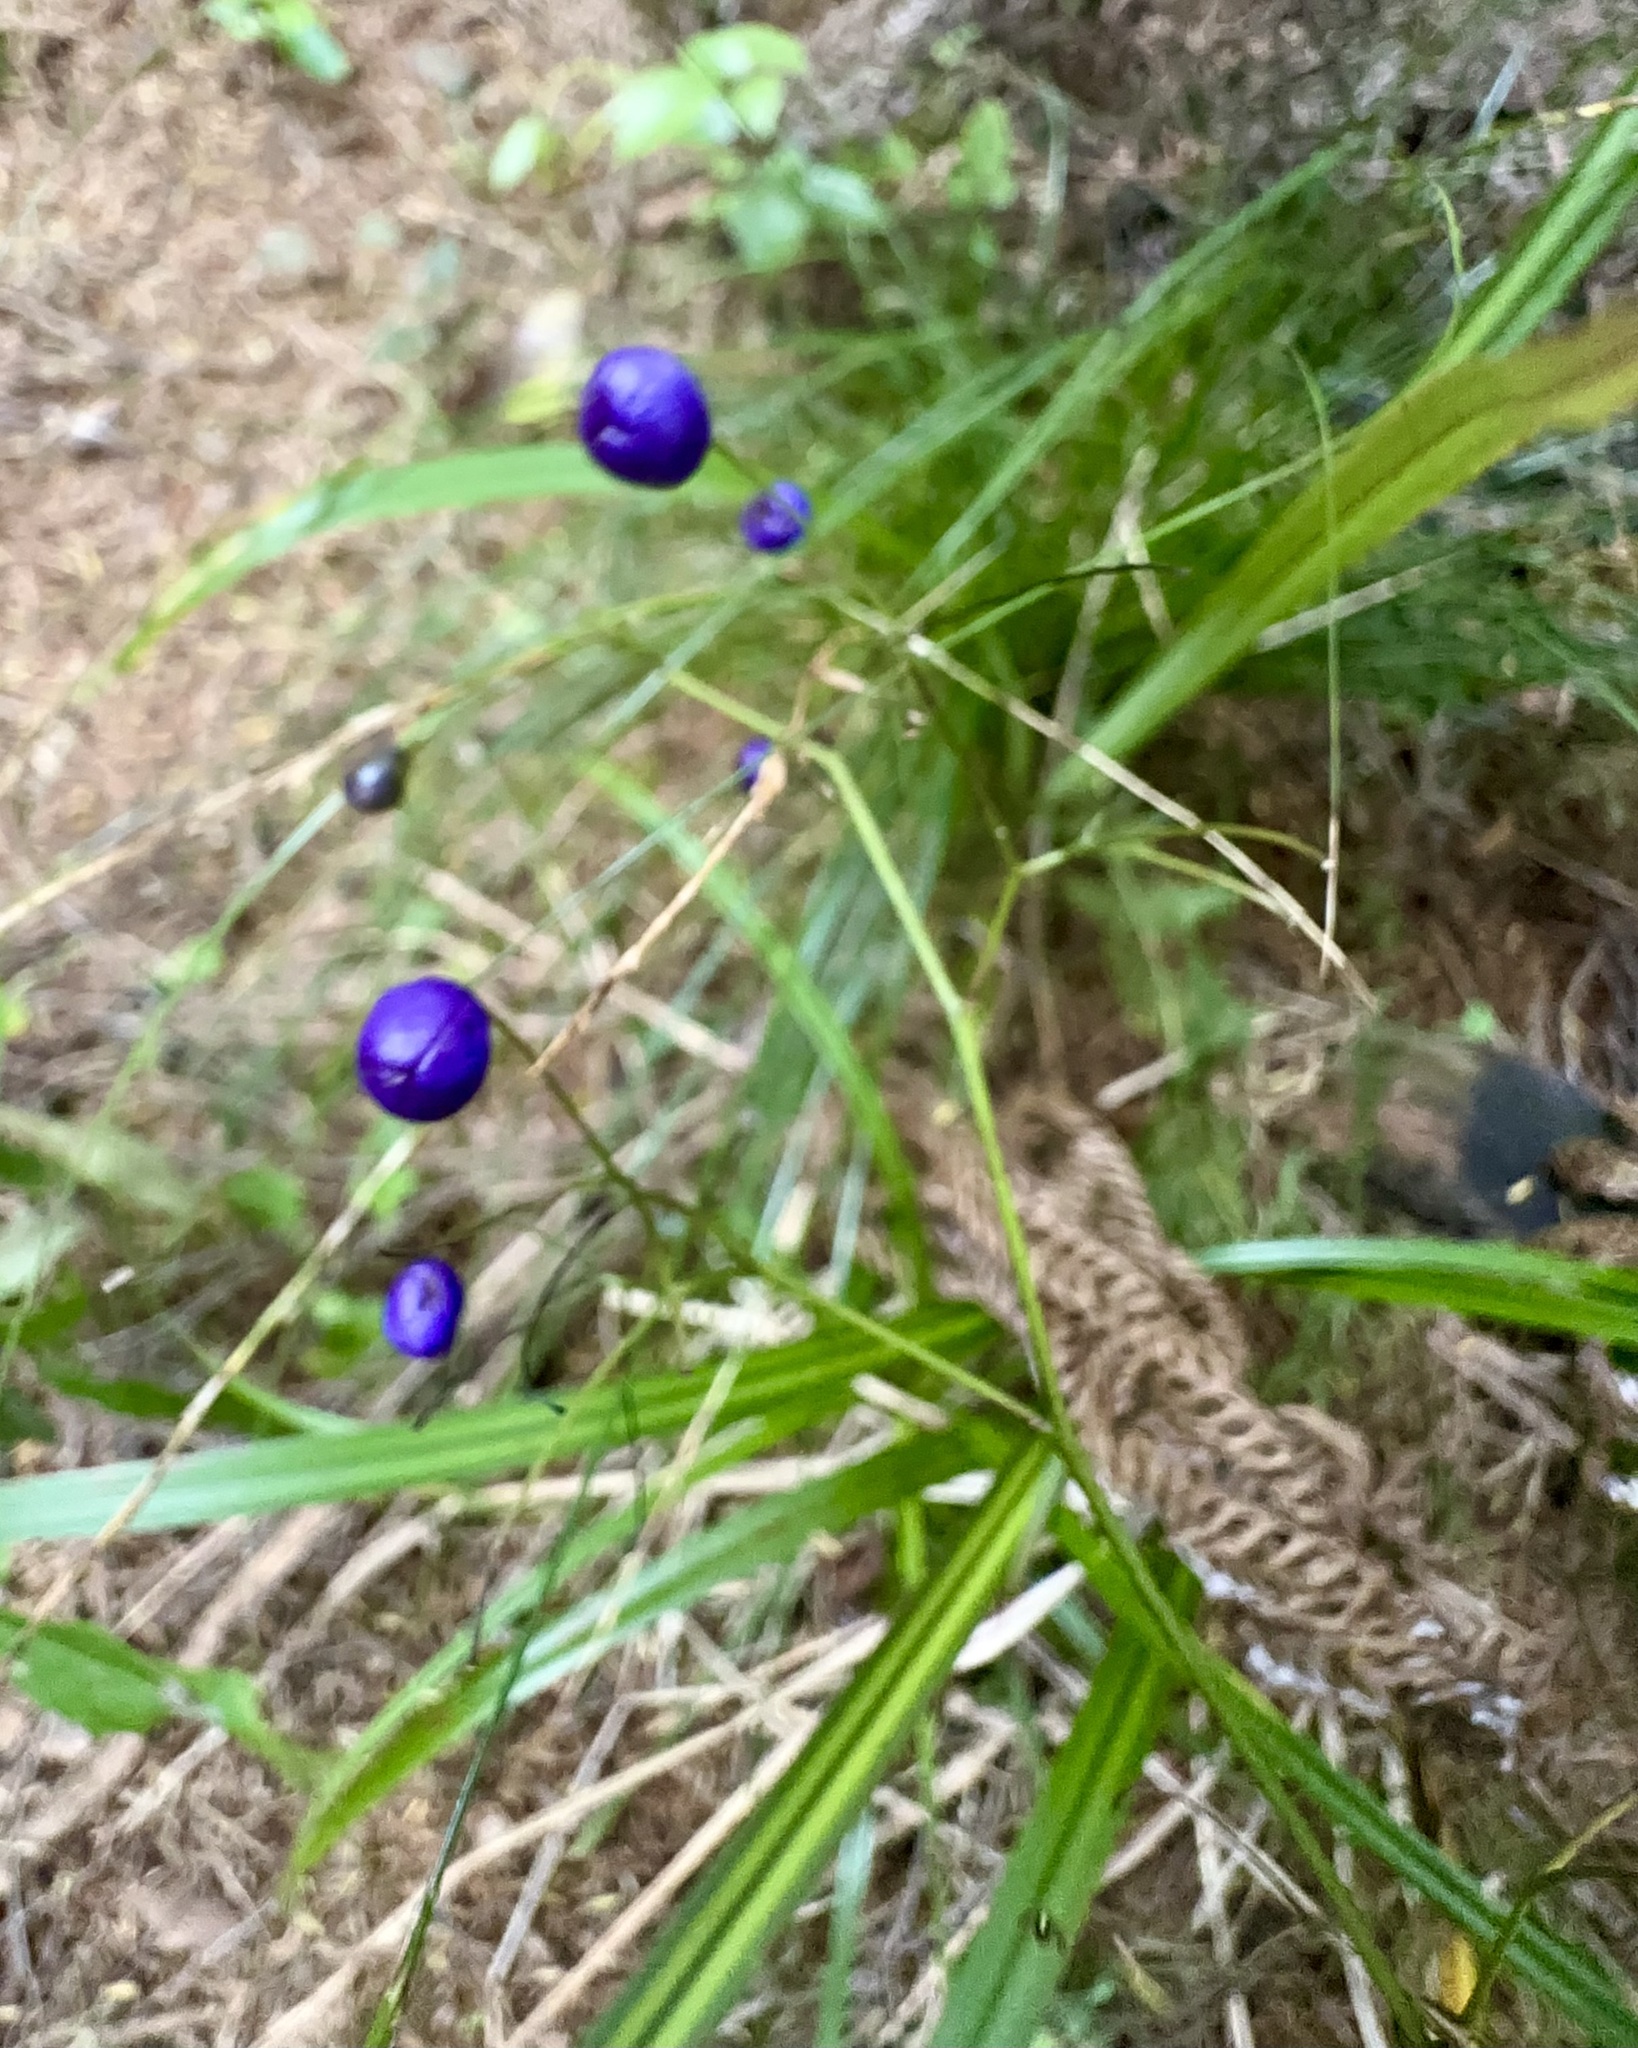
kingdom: Plantae
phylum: Tracheophyta
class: Liliopsida
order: Asparagales
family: Asphodelaceae
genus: Dianella
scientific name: Dianella nigra
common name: New zealand-blueberry
